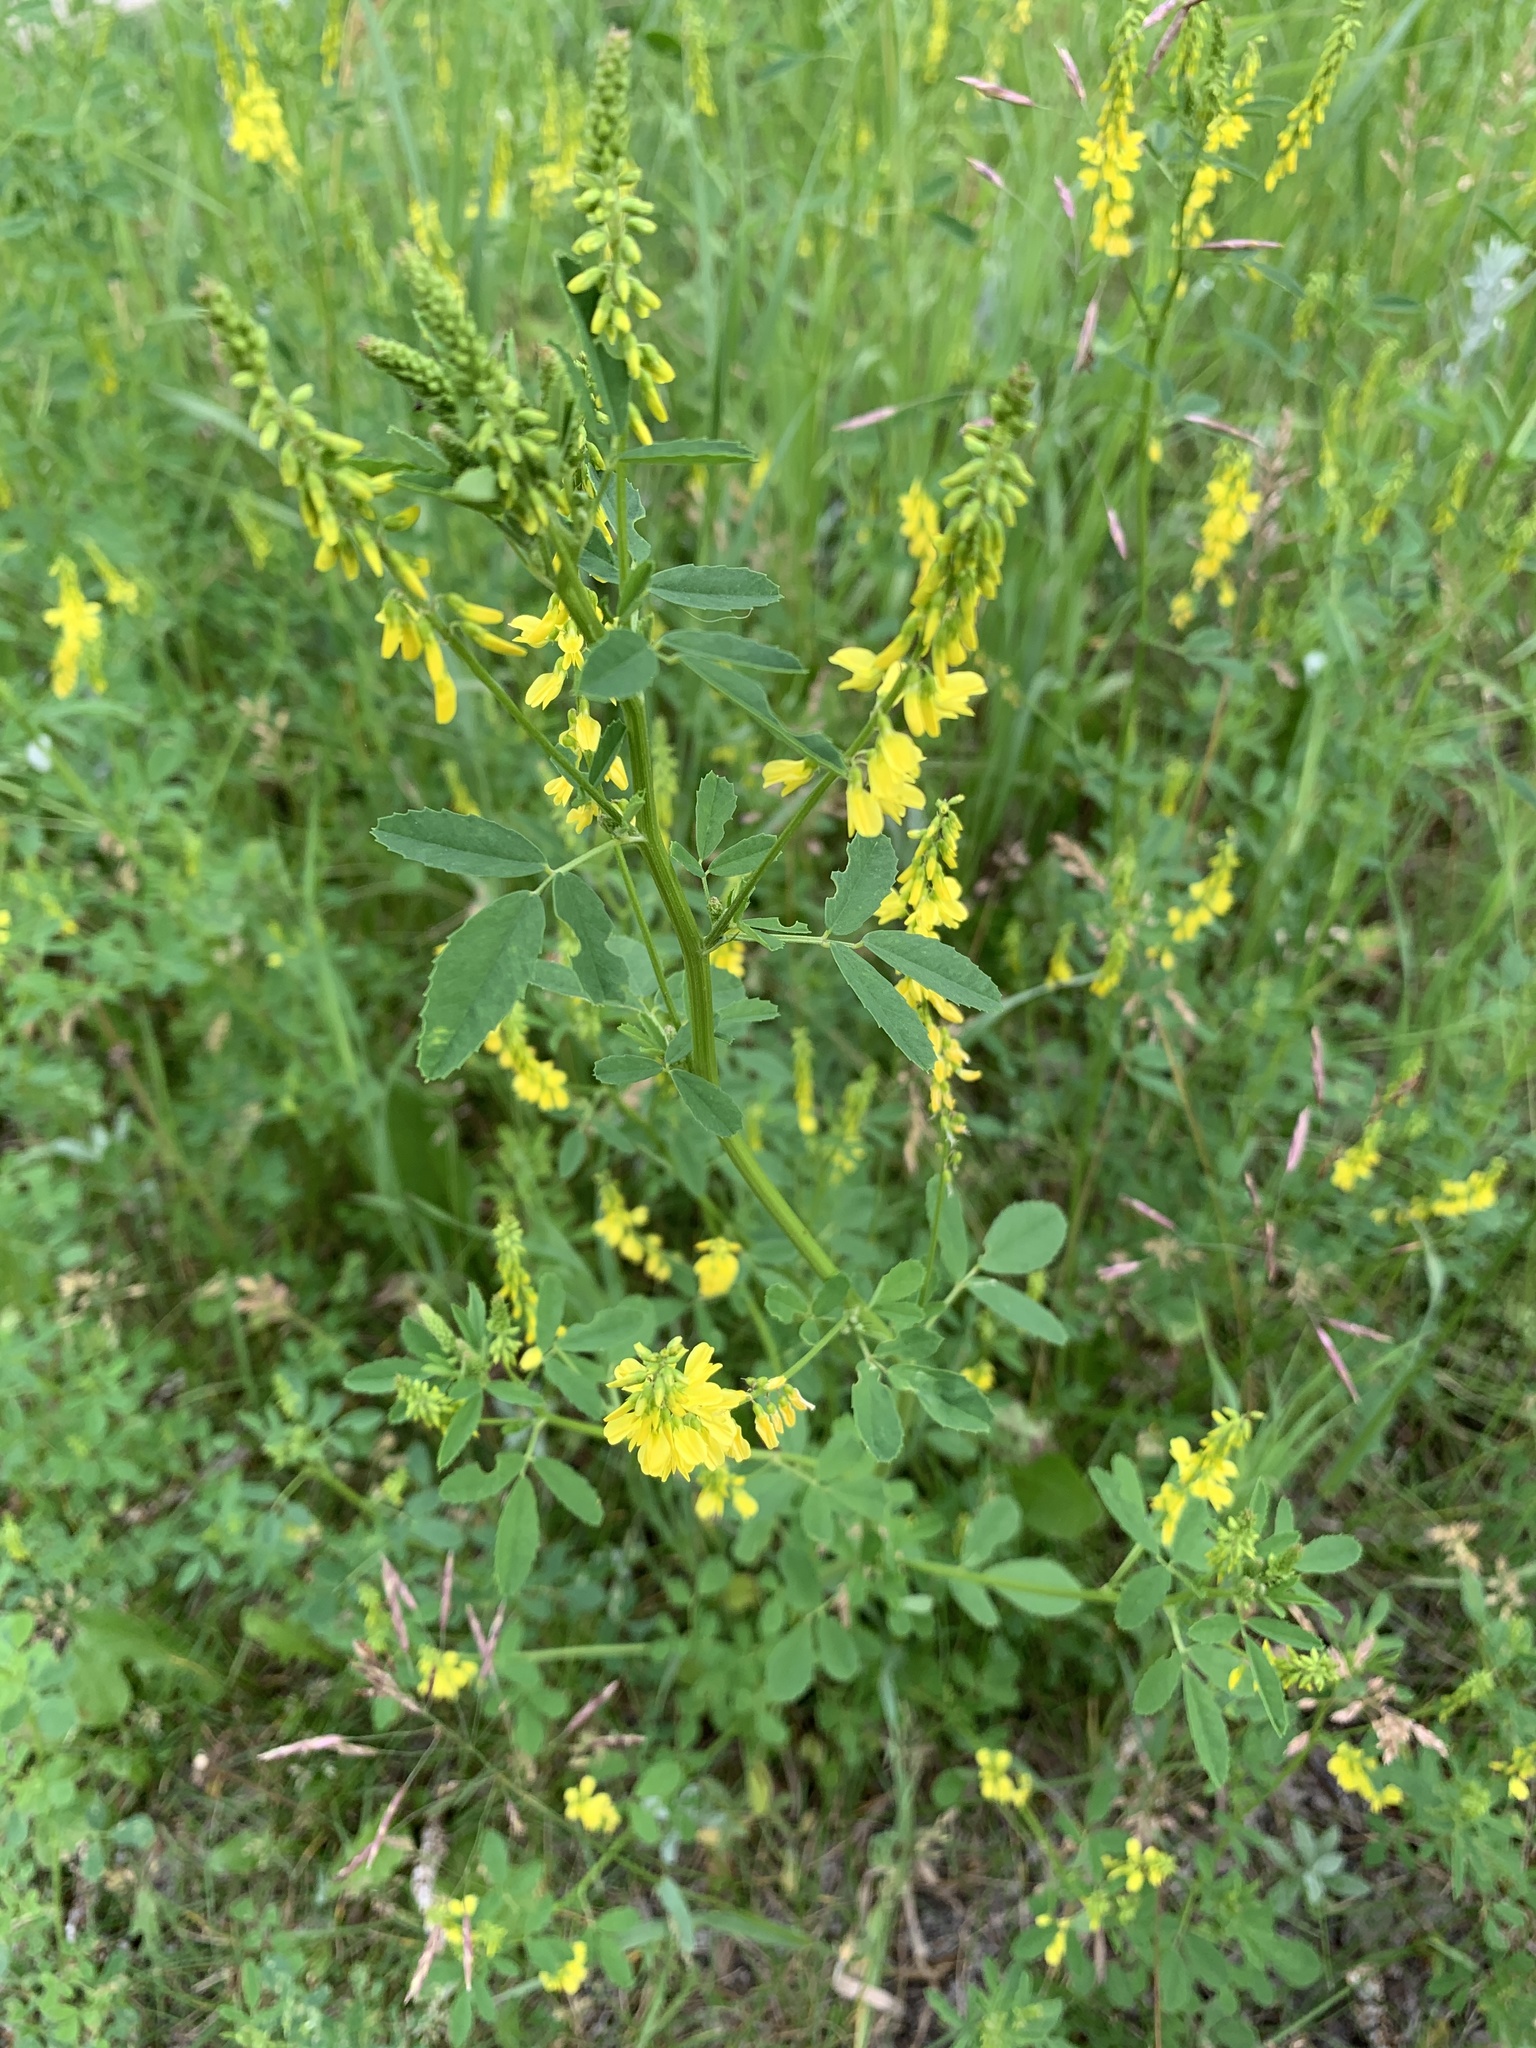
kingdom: Plantae
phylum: Tracheophyta
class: Magnoliopsida
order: Fabales
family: Fabaceae
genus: Melilotus
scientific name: Melilotus officinalis
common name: Sweetclover
